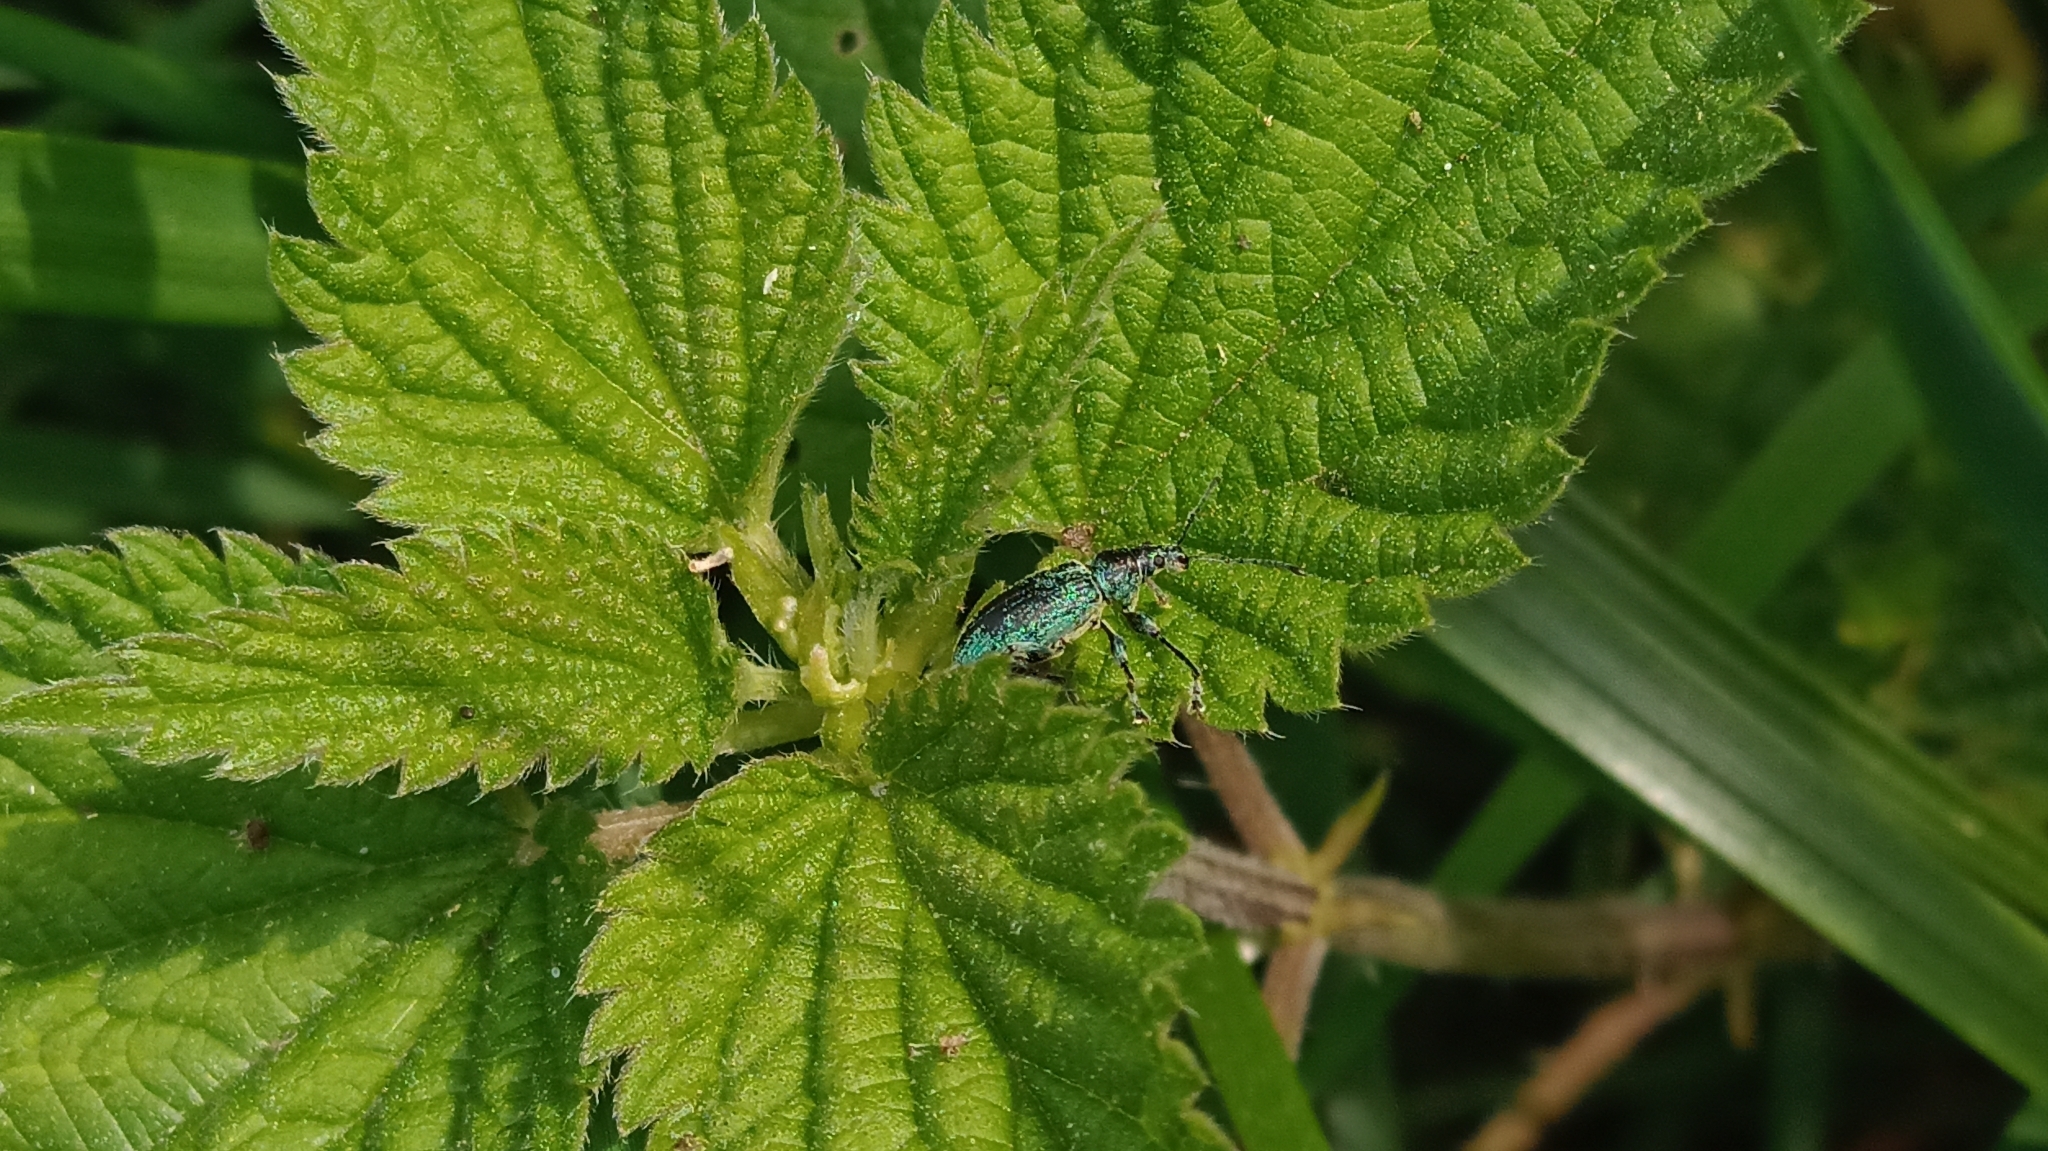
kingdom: Animalia
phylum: Arthropoda
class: Insecta
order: Coleoptera
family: Curculionidae
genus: Phyllobius
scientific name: Phyllobius pomaceus
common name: Green nettle weevil
